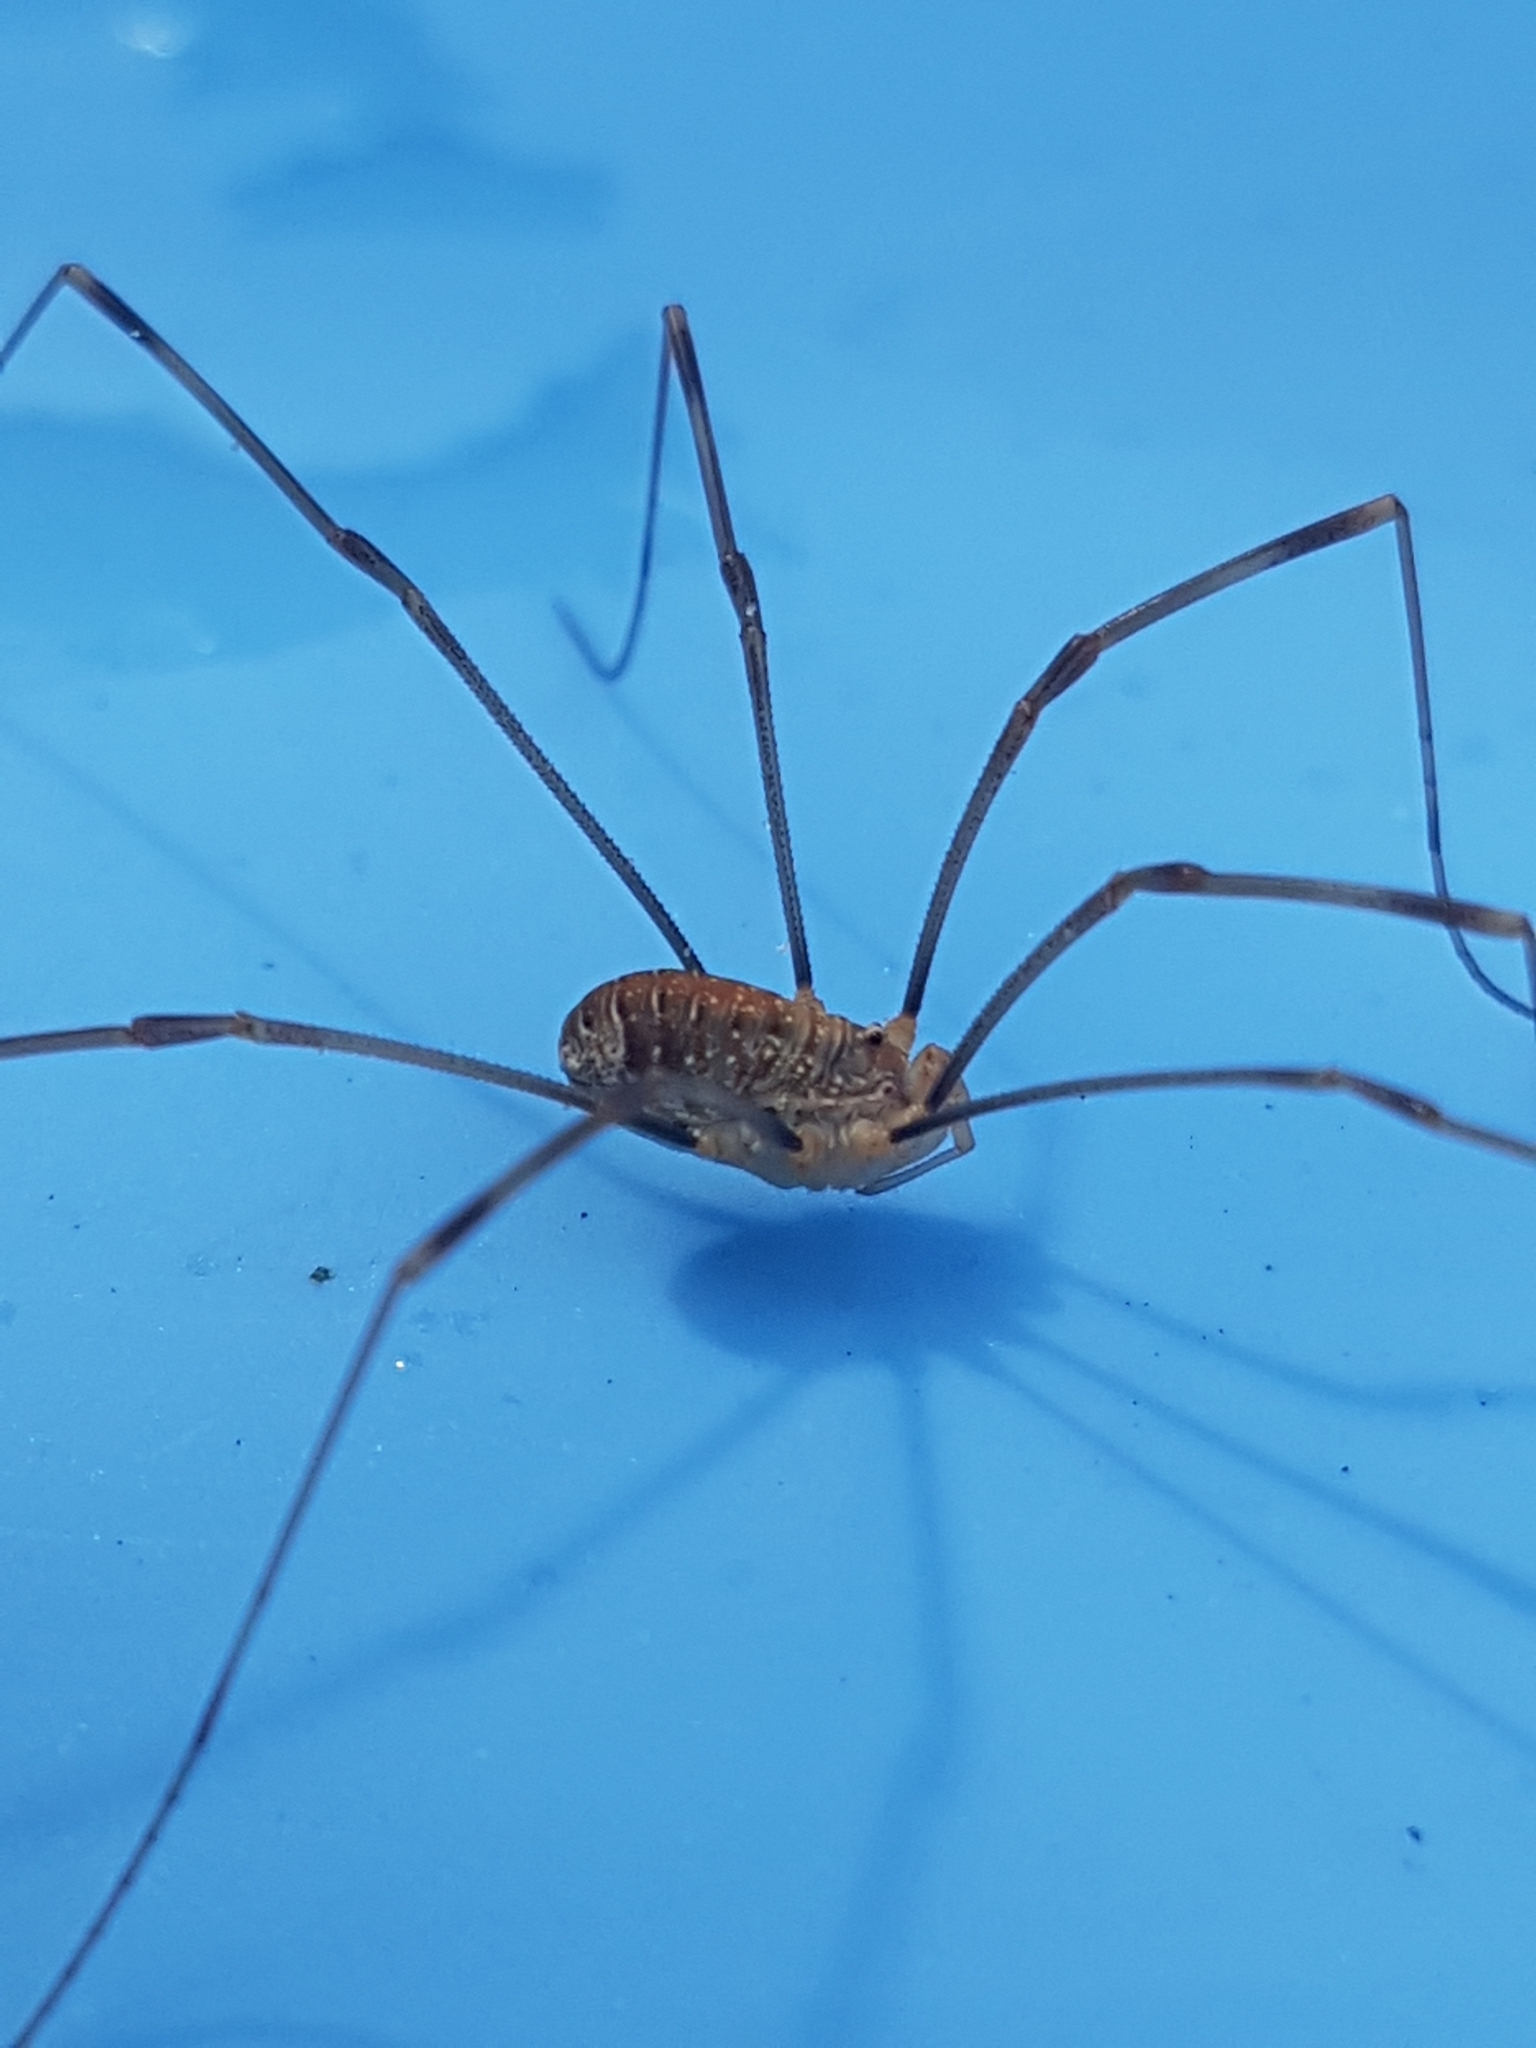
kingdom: Animalia
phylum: Arthropoda
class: Arachnida
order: Opiliones
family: Phalangiidae
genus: Opilio
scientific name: Opilio canestrinii
